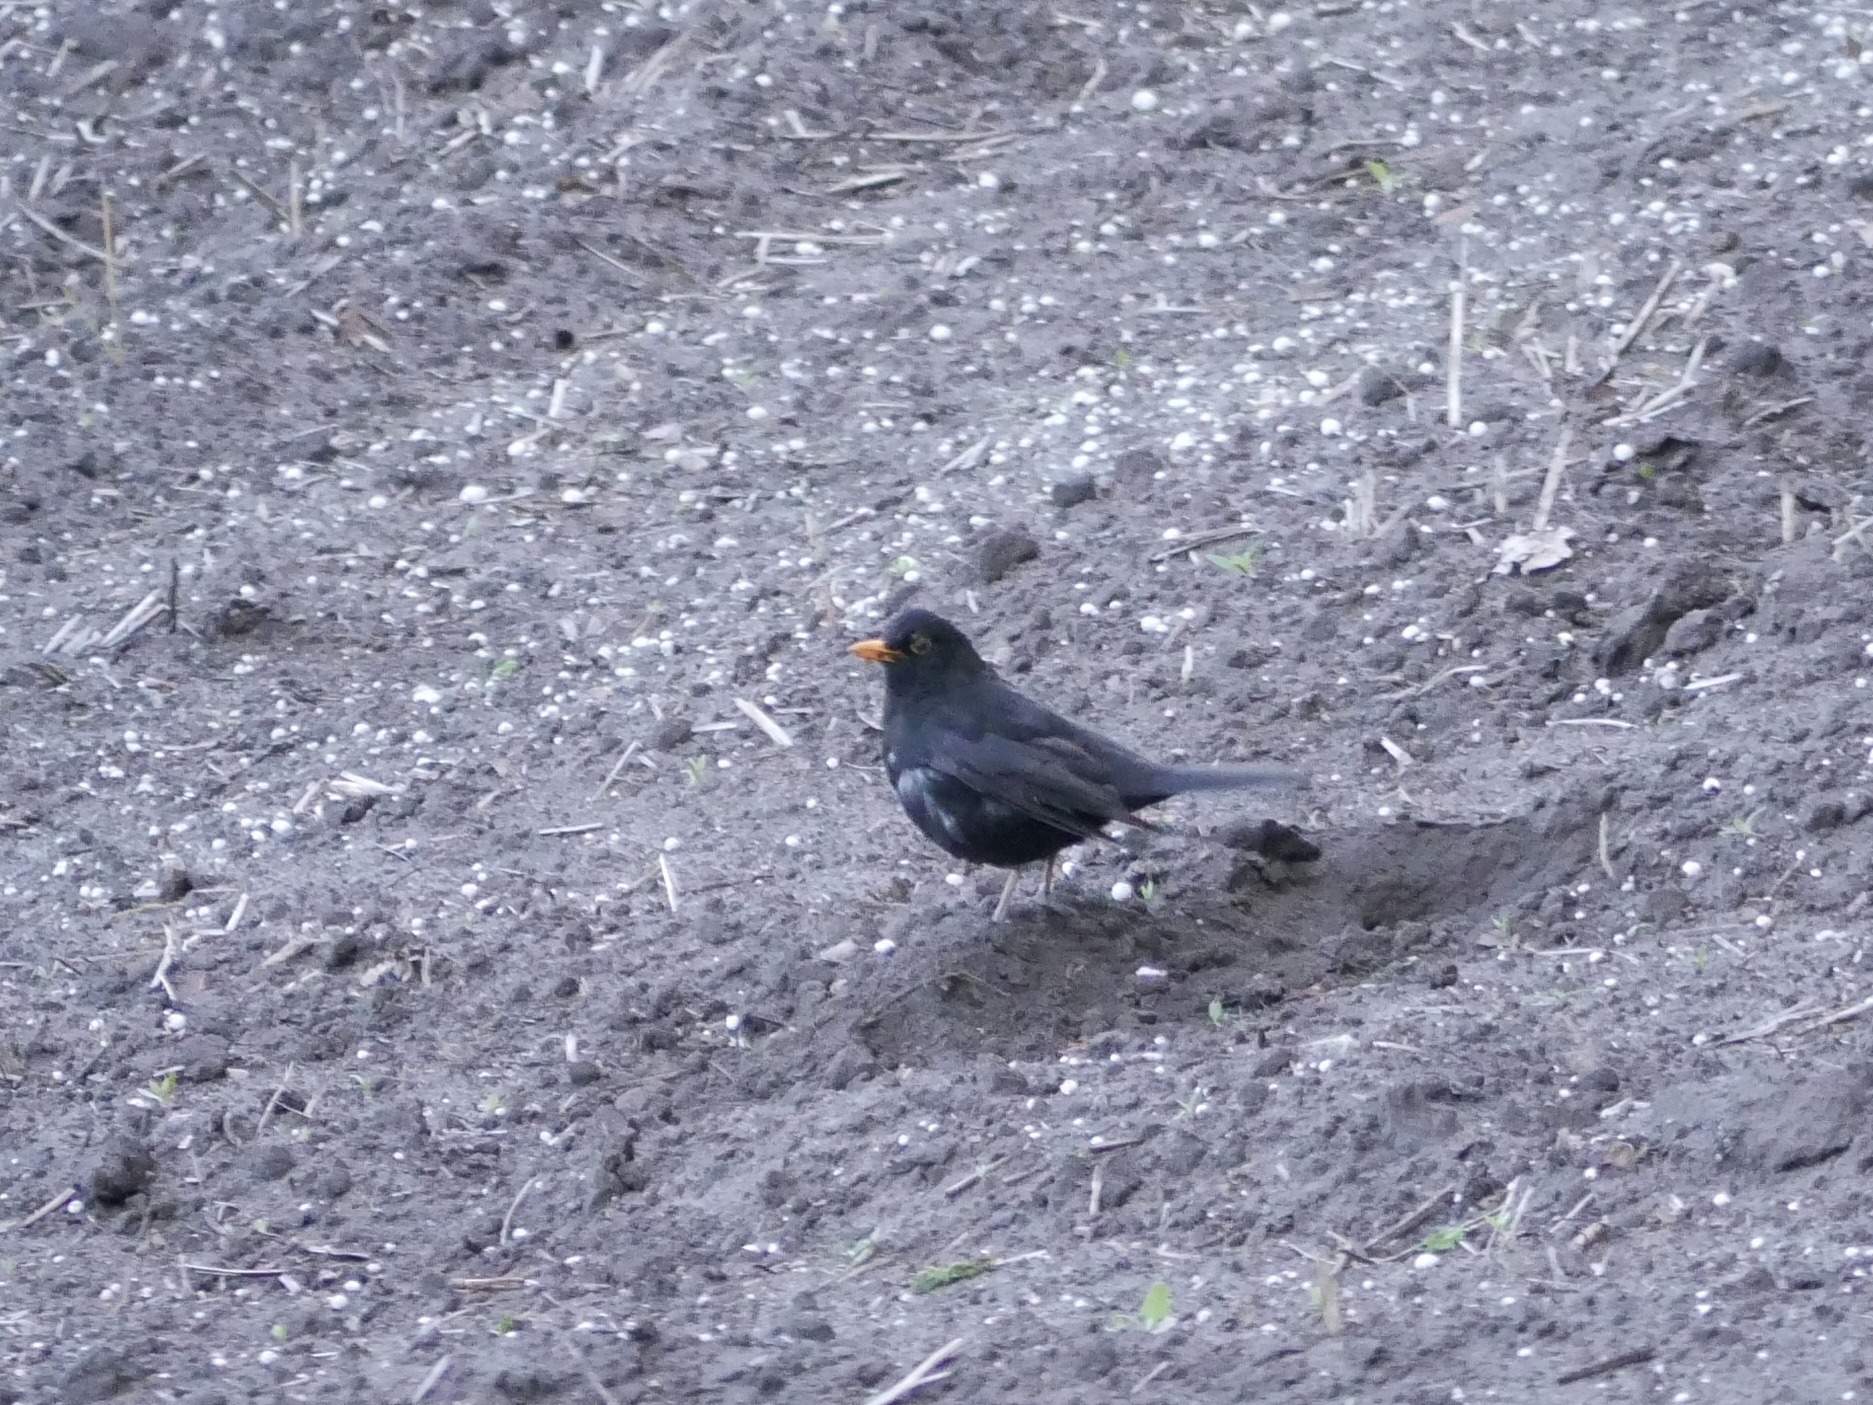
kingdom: Animalia
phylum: Chordata
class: Aves
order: Passeriformes
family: Turdidae
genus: Turdus
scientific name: Turdus merula
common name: Common blackbird
